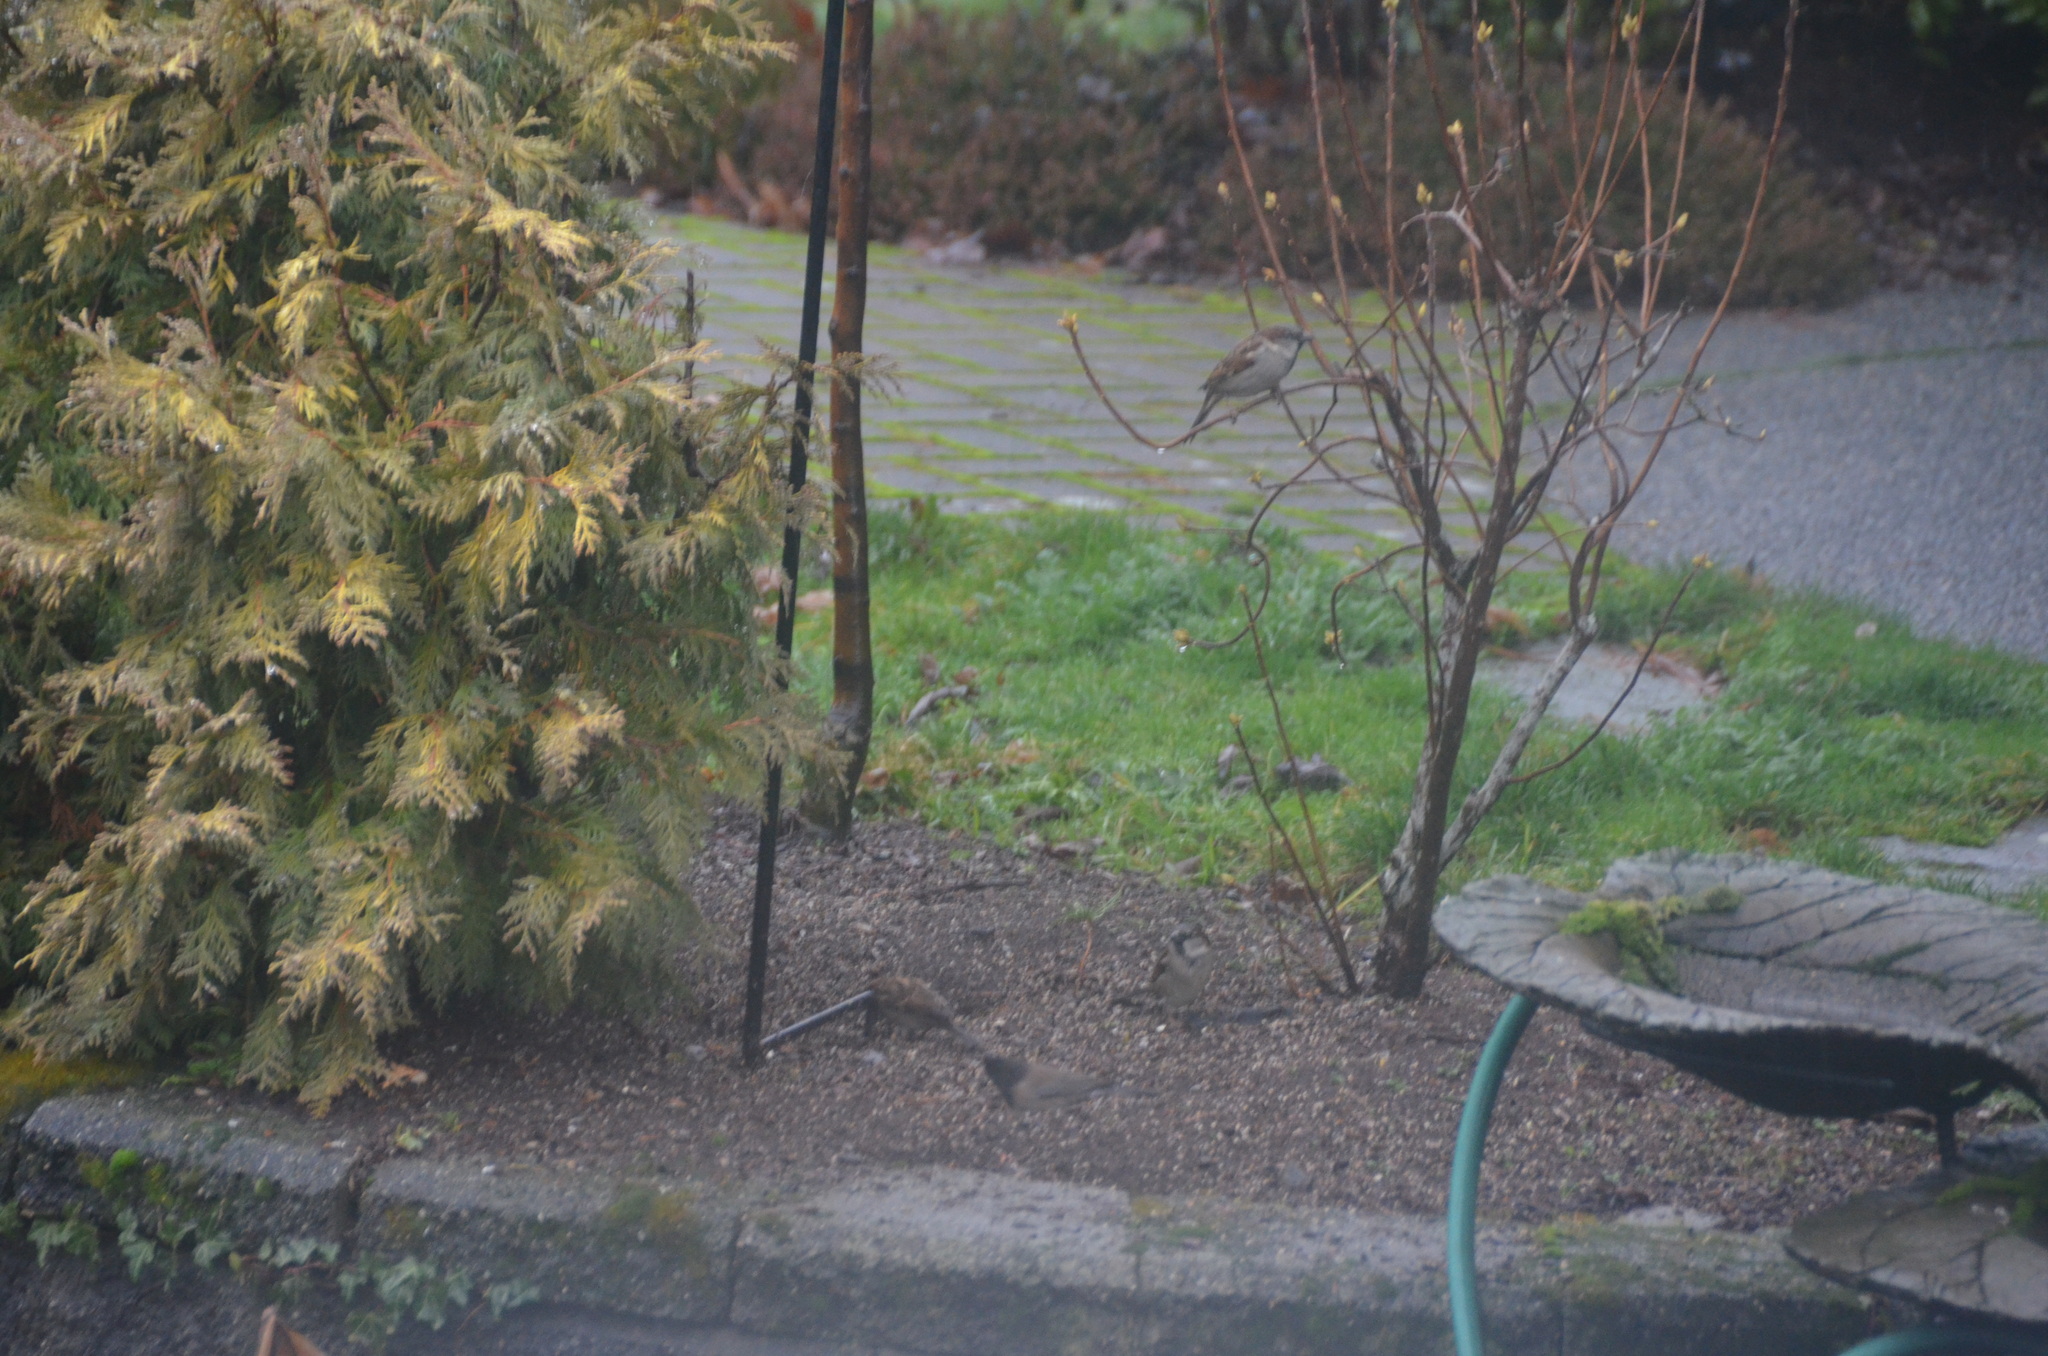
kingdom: Animalia
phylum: Chordata
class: Aves
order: Passeriformes
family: Passeridae
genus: Passer
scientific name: Passer domesticus
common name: House sparrow
